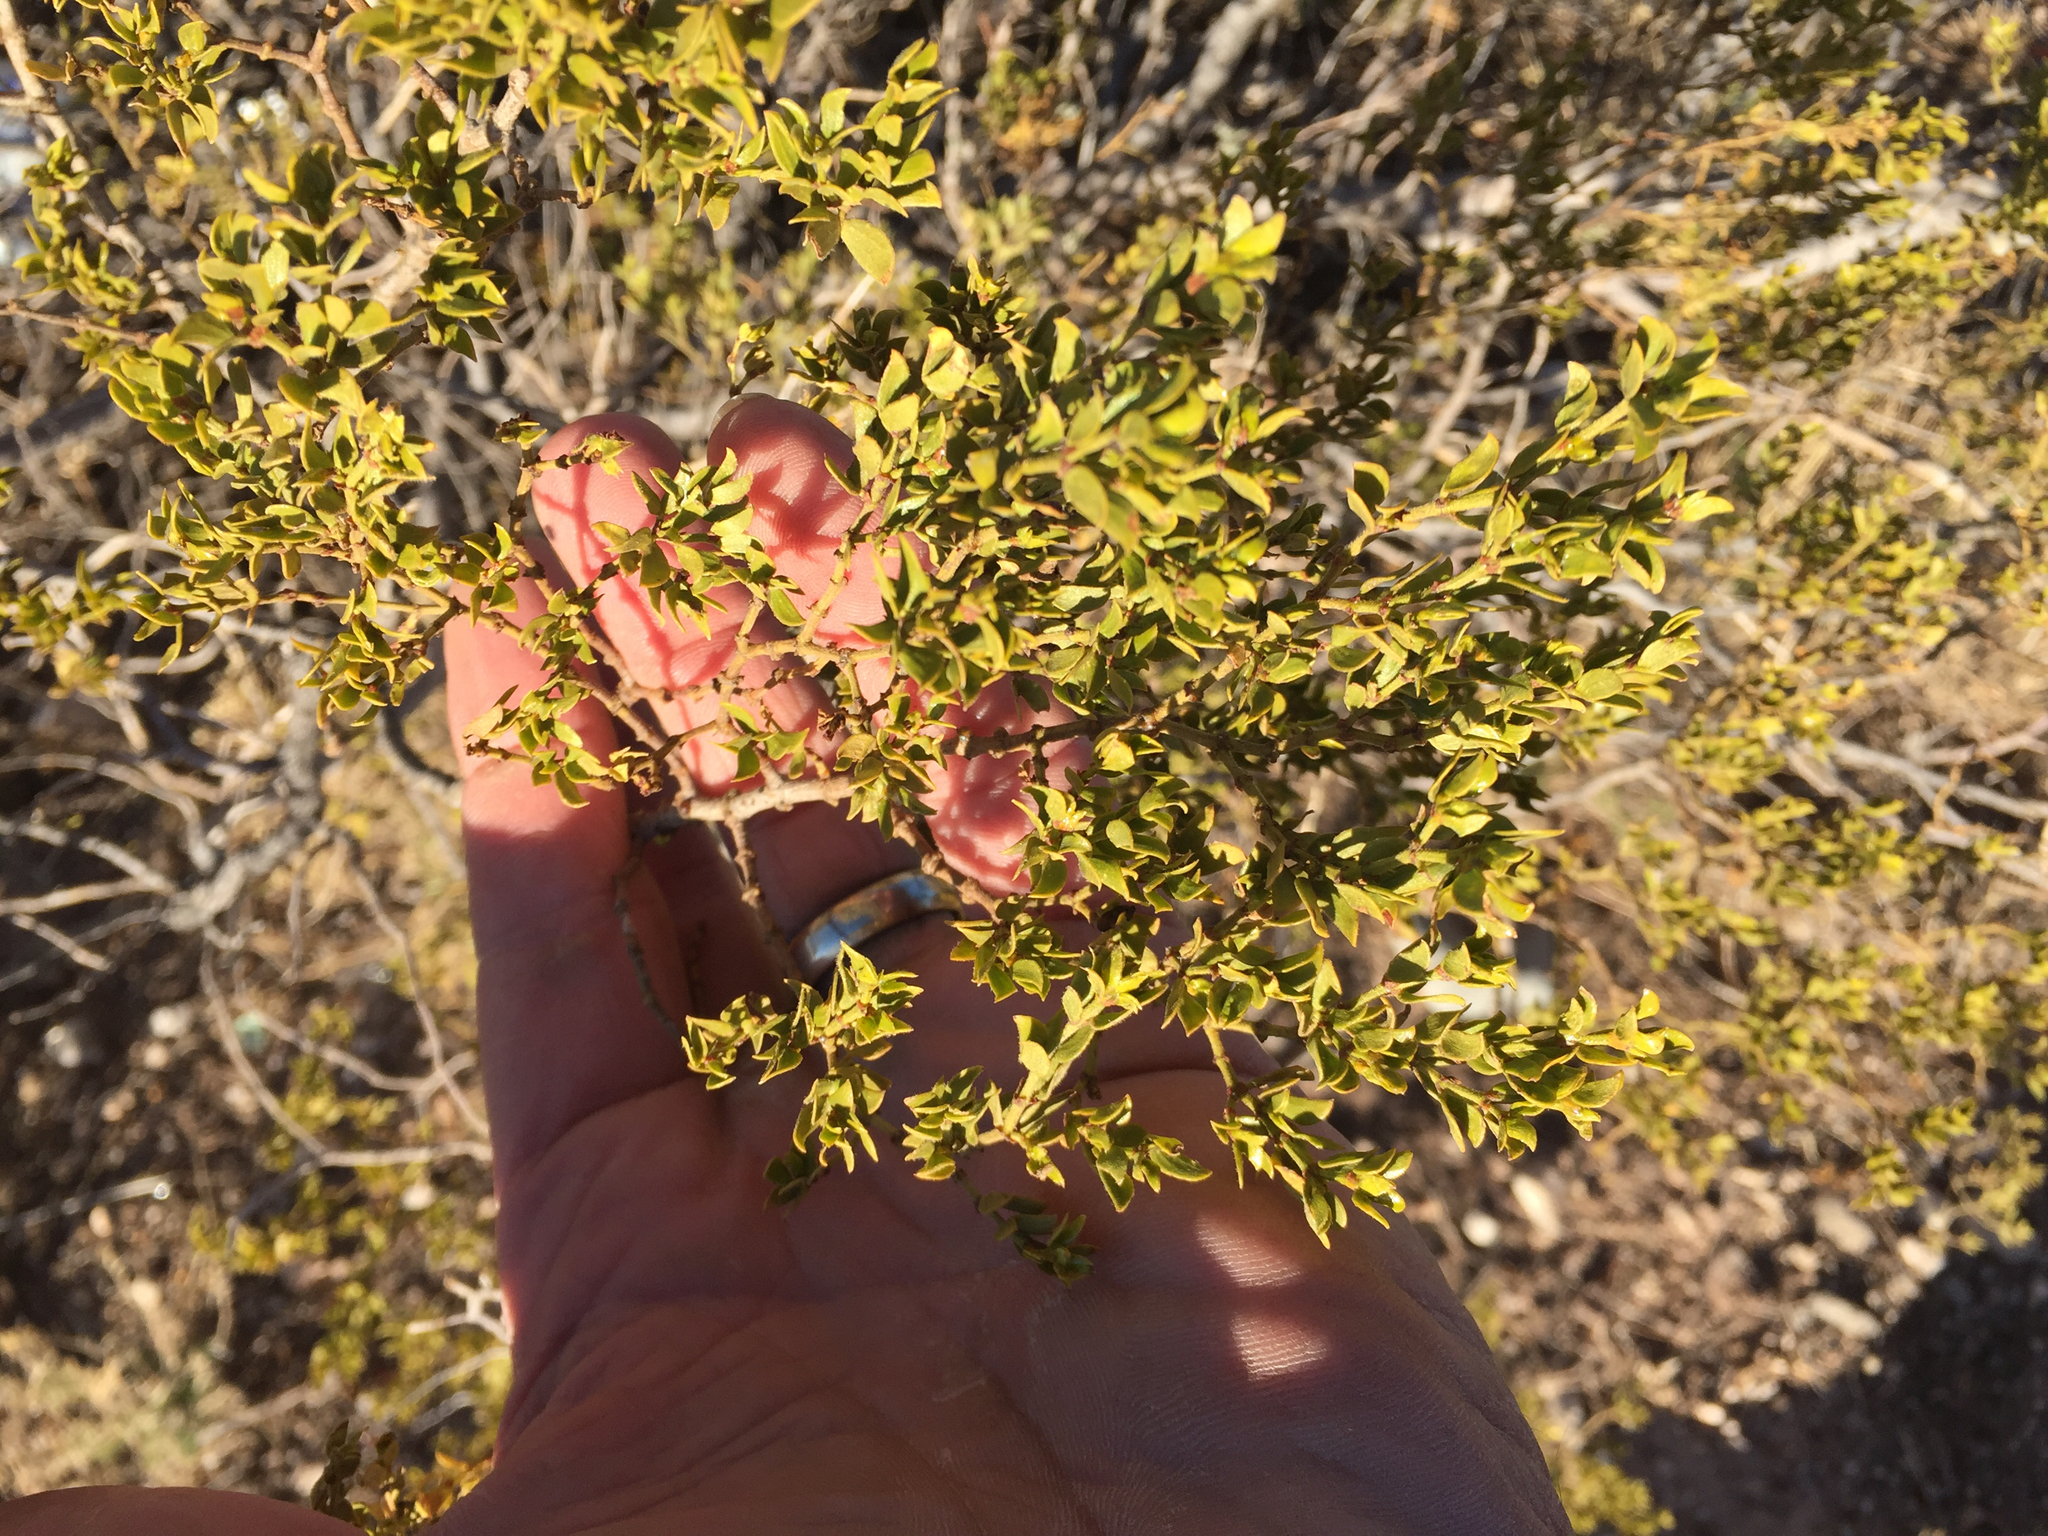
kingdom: Plantae
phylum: Tracheophyta
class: Magnoliopsida
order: Zygophyllales
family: Zygophyllaceae
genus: Larrea
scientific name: Larrea tridentata
